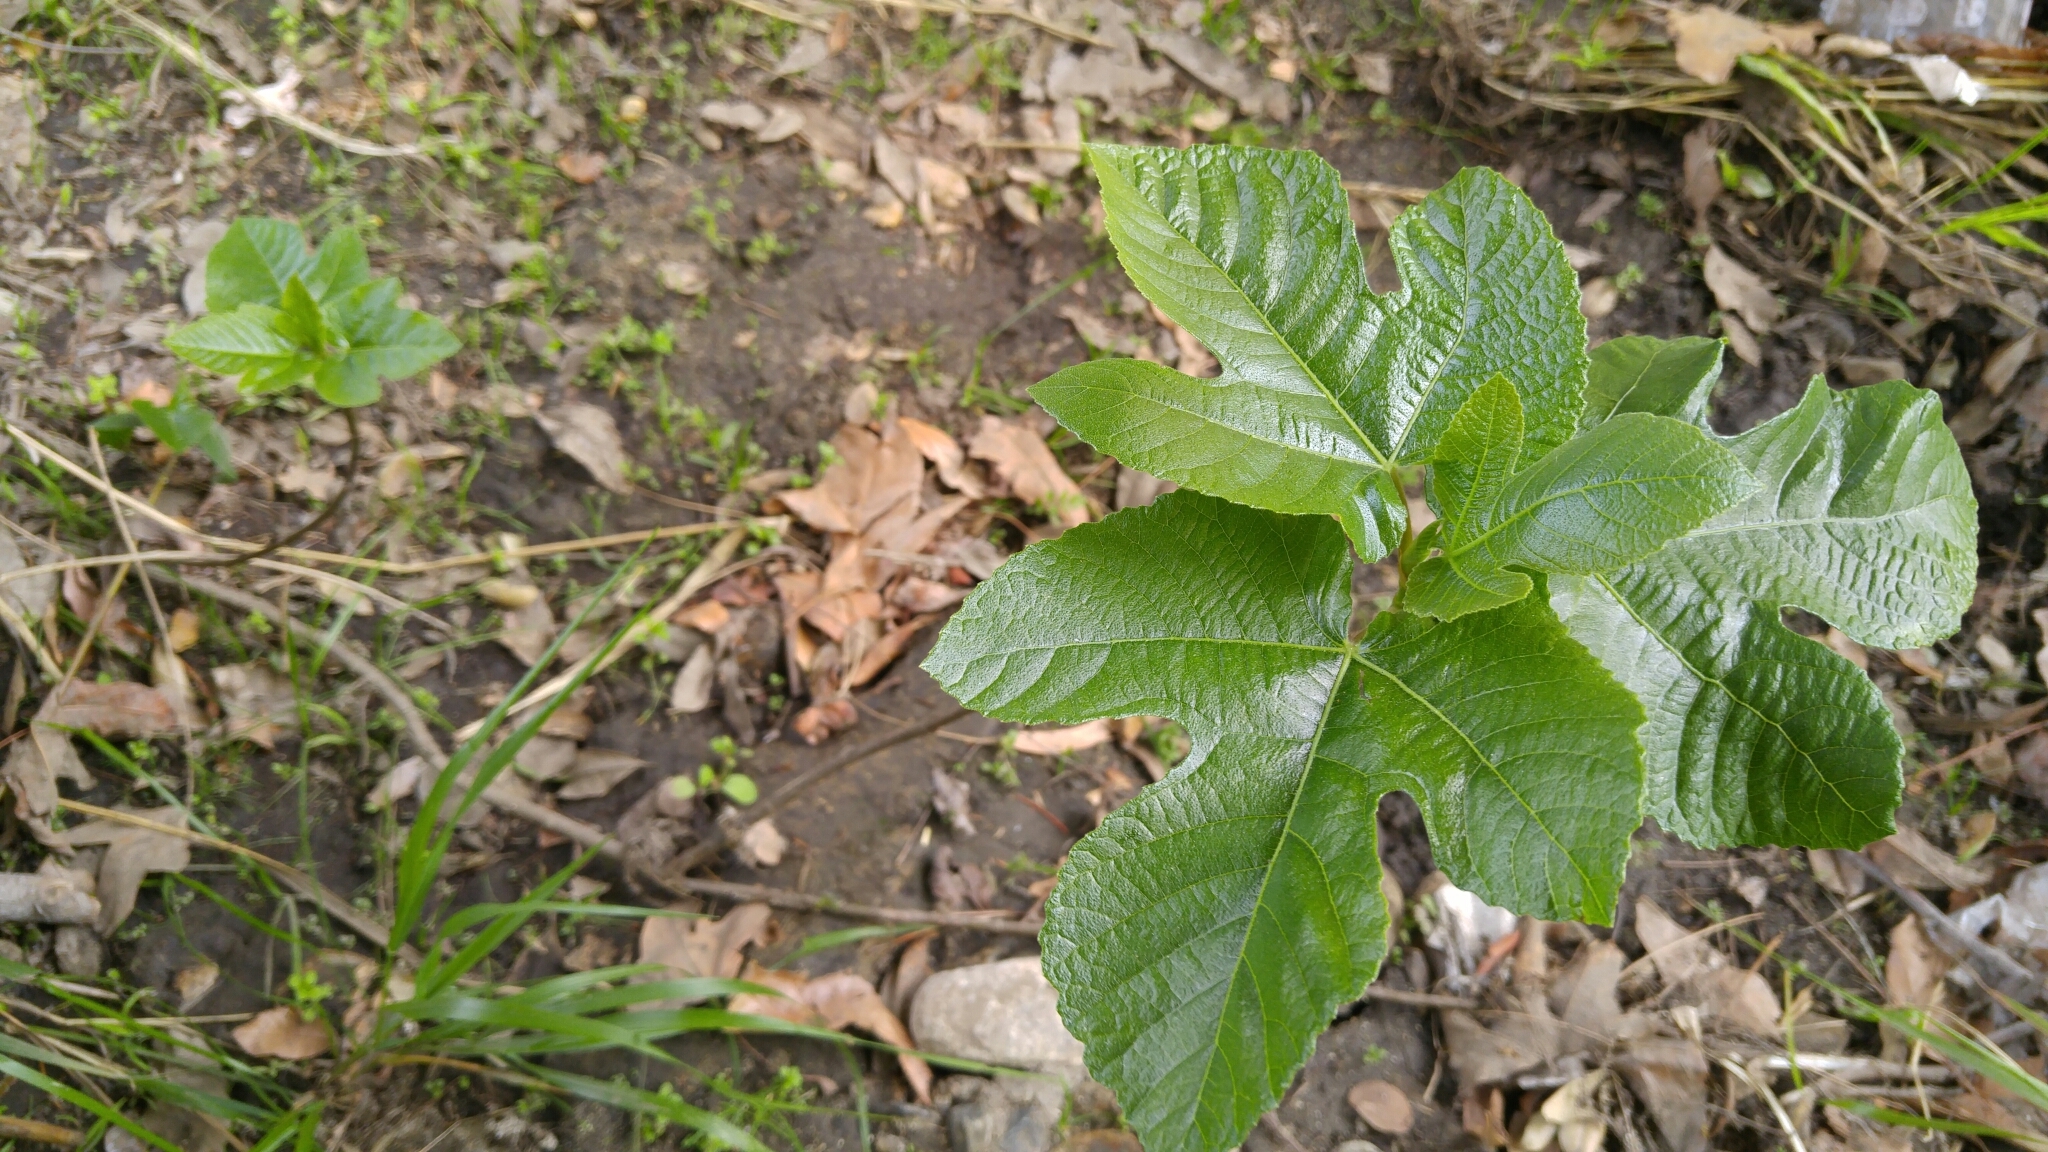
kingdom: Plantae
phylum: Tracheophyta
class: Magnoliopsida
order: Rosales
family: Moraceae
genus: Ficus
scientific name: Ficus carica
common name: Fig
